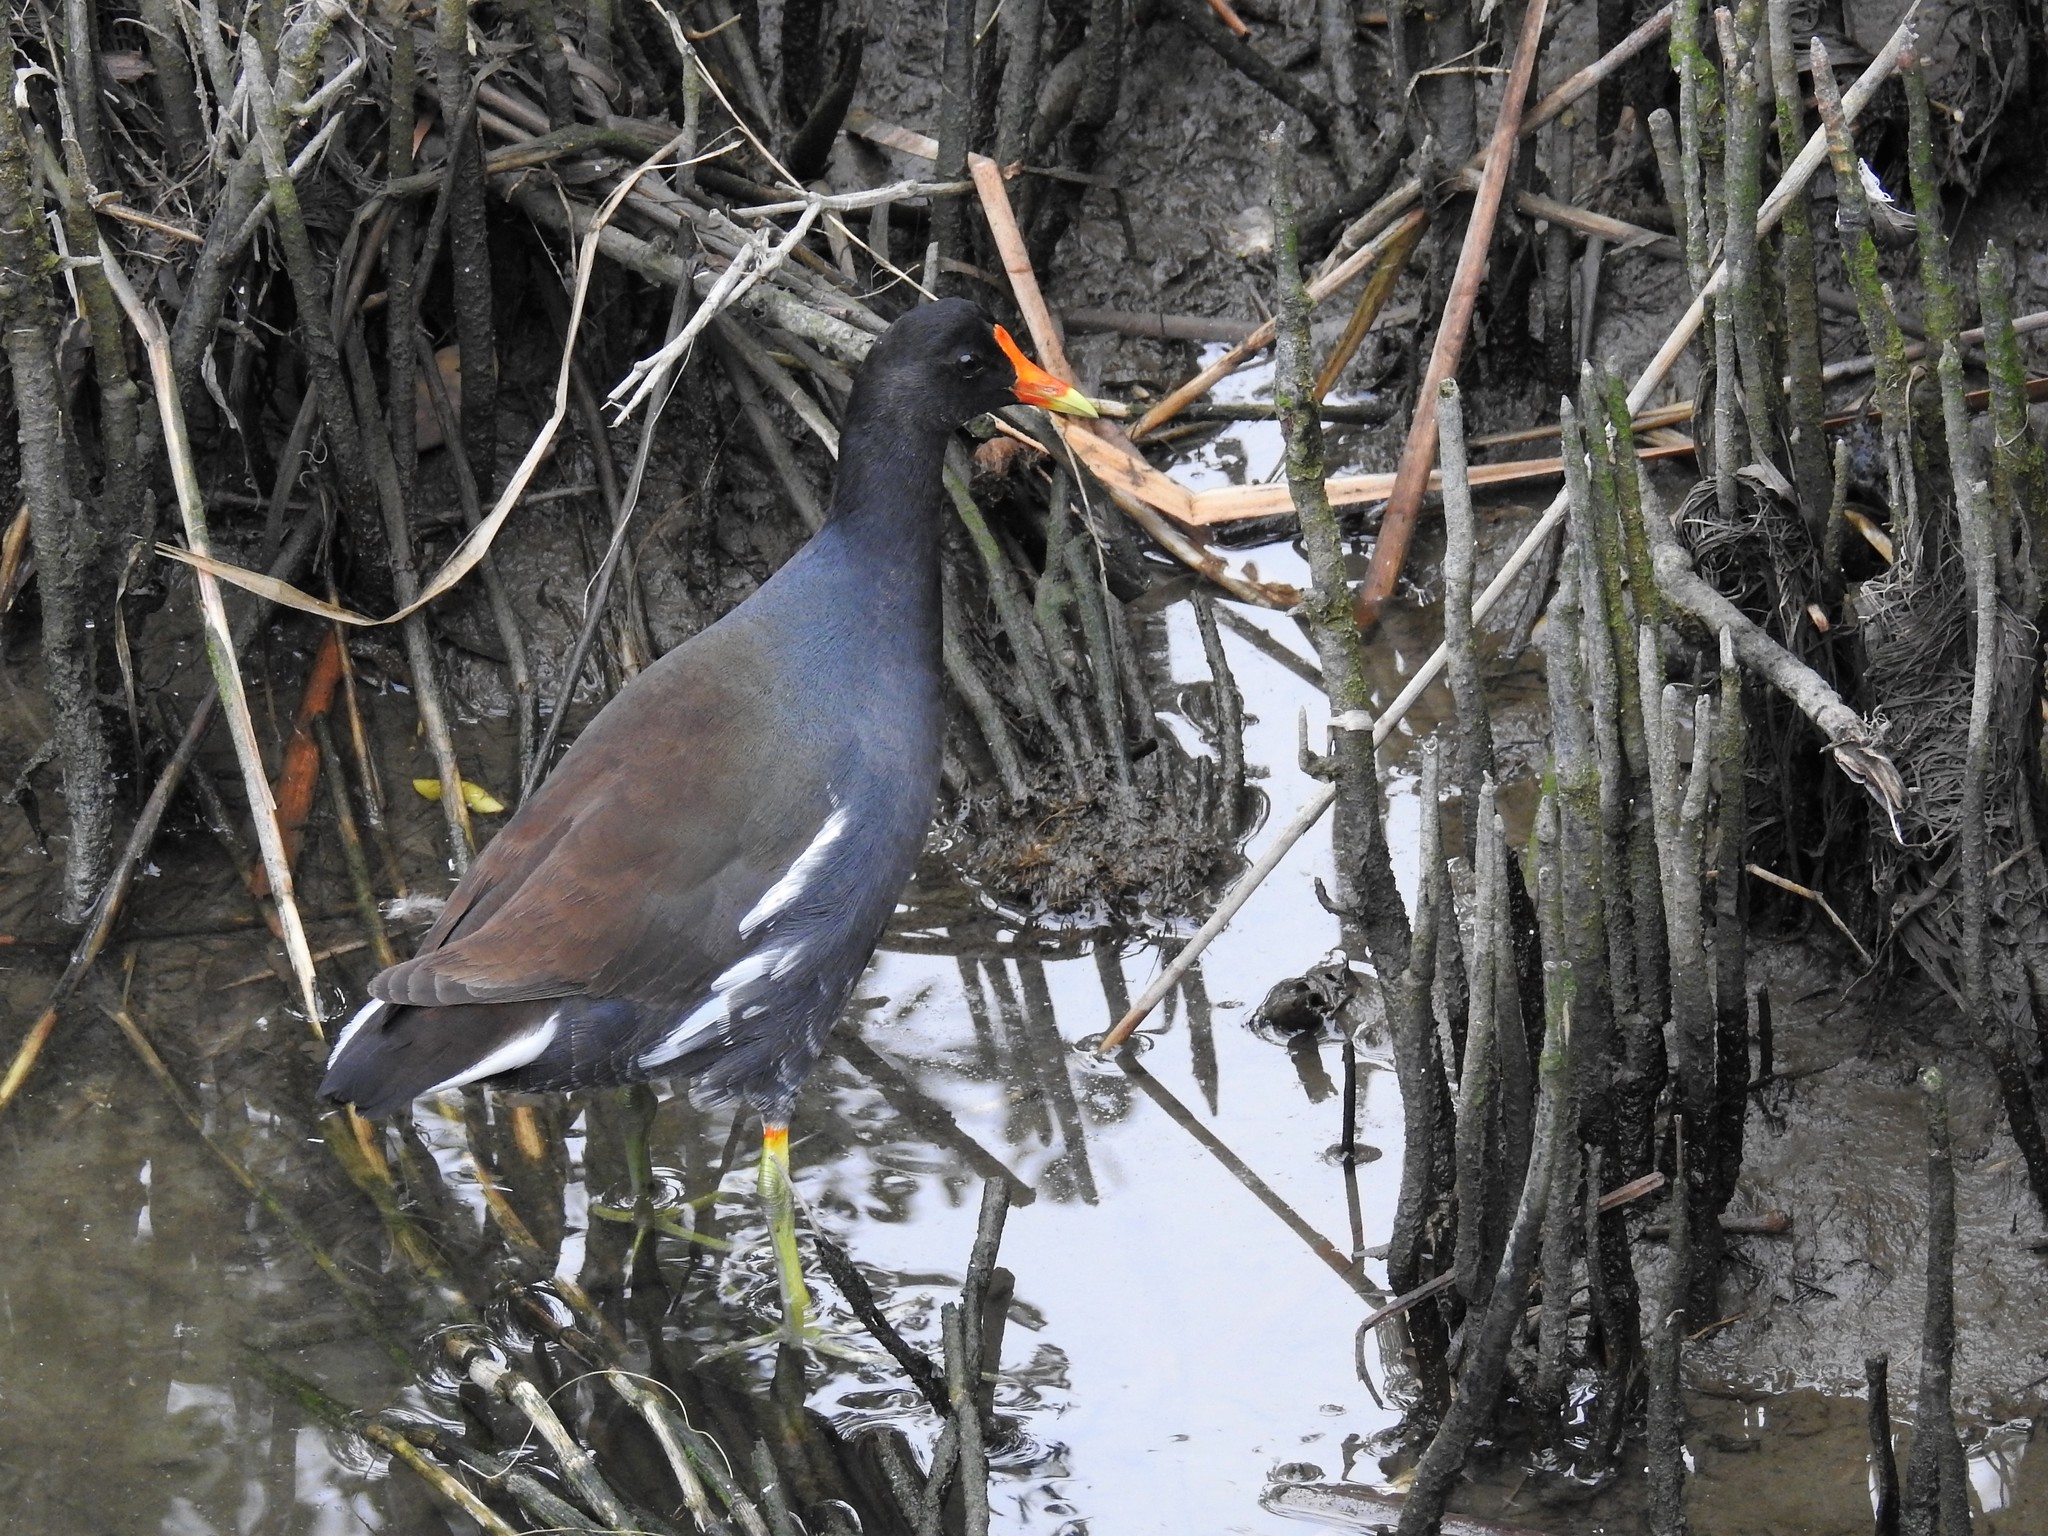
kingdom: Animalia
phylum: Chordata
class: Aves
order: Gruiformes
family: Rallidae
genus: Gallinula
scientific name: Gallinula chloropus
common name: Common moorhen
